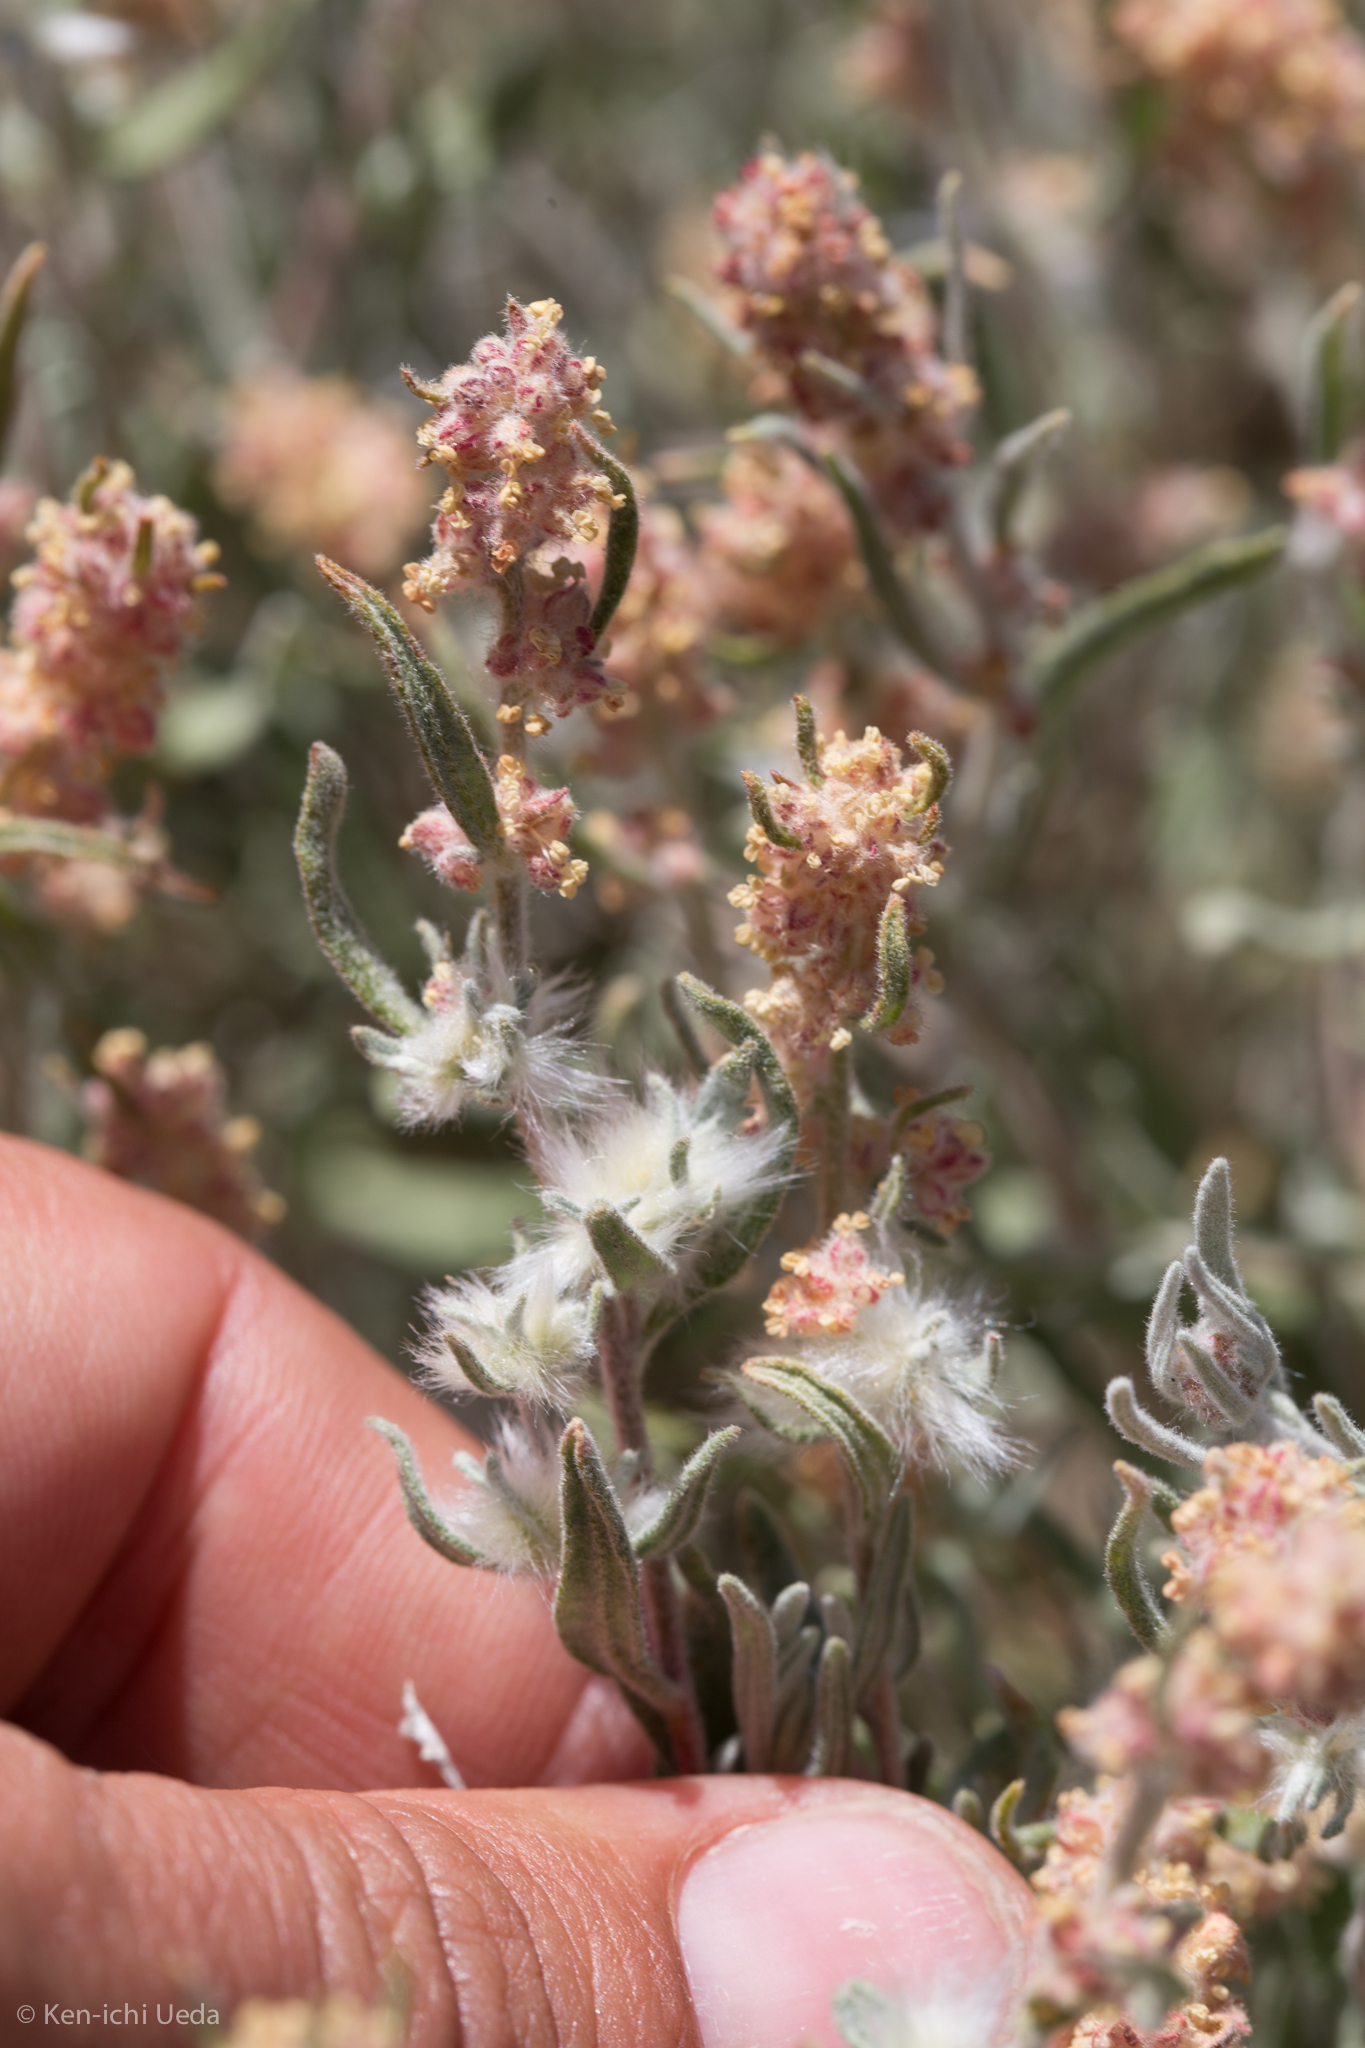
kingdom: Plantae
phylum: Tracheophyta
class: Magnoliopsida
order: Caryophyllales
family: Amaranthaceae
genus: Krascheninnikovia
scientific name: Krascheninnikovia lanata
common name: Winterfat
